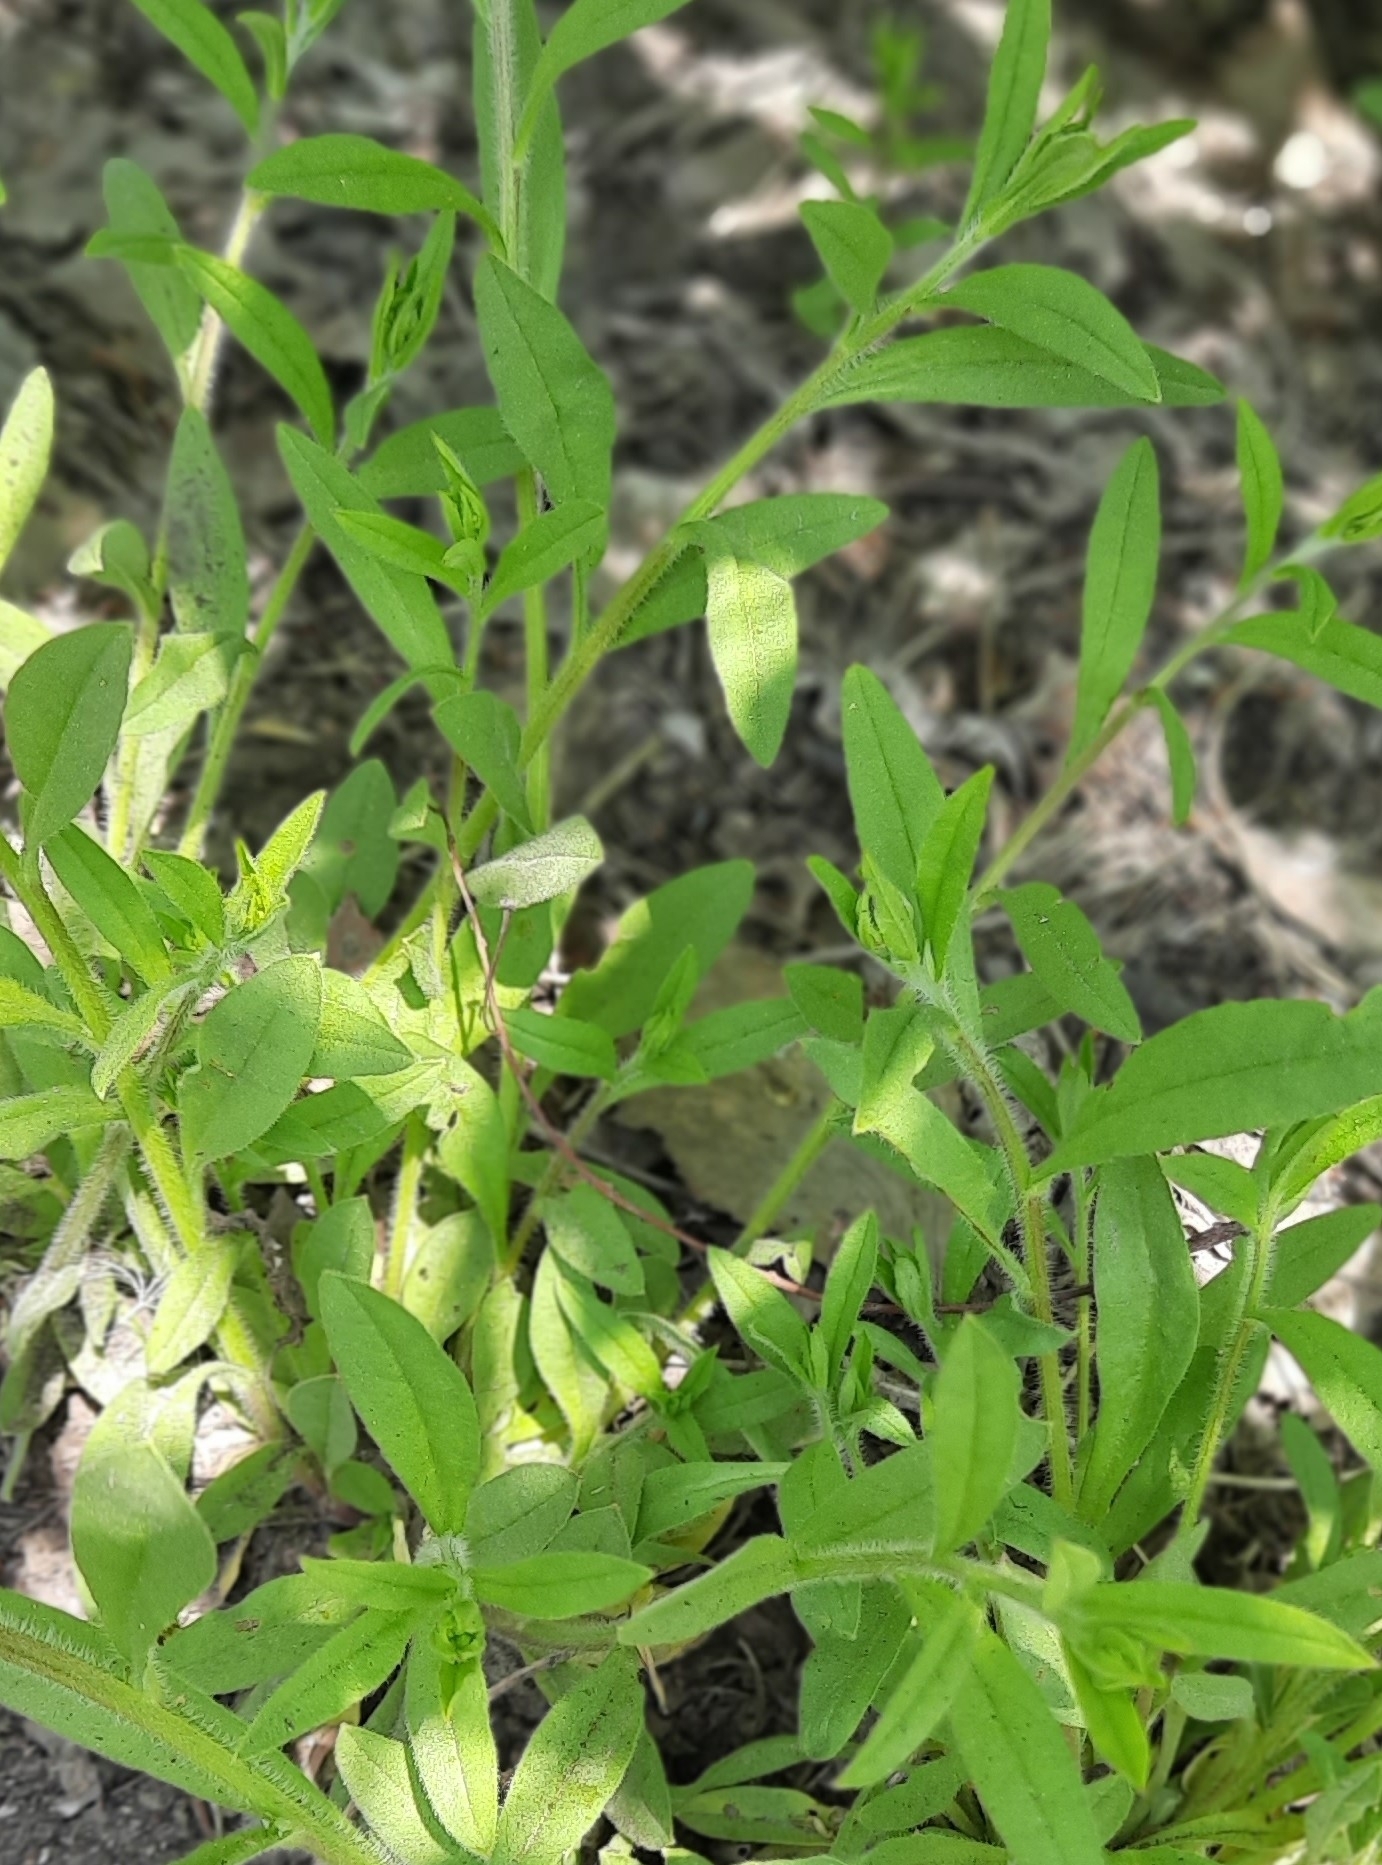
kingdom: Plantae
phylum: Tracheophyta
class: Magnoliopsida
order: Boraginales
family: Boraginaceae
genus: Hackelia
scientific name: Hackelia deflexa
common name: Nodding stickseed
